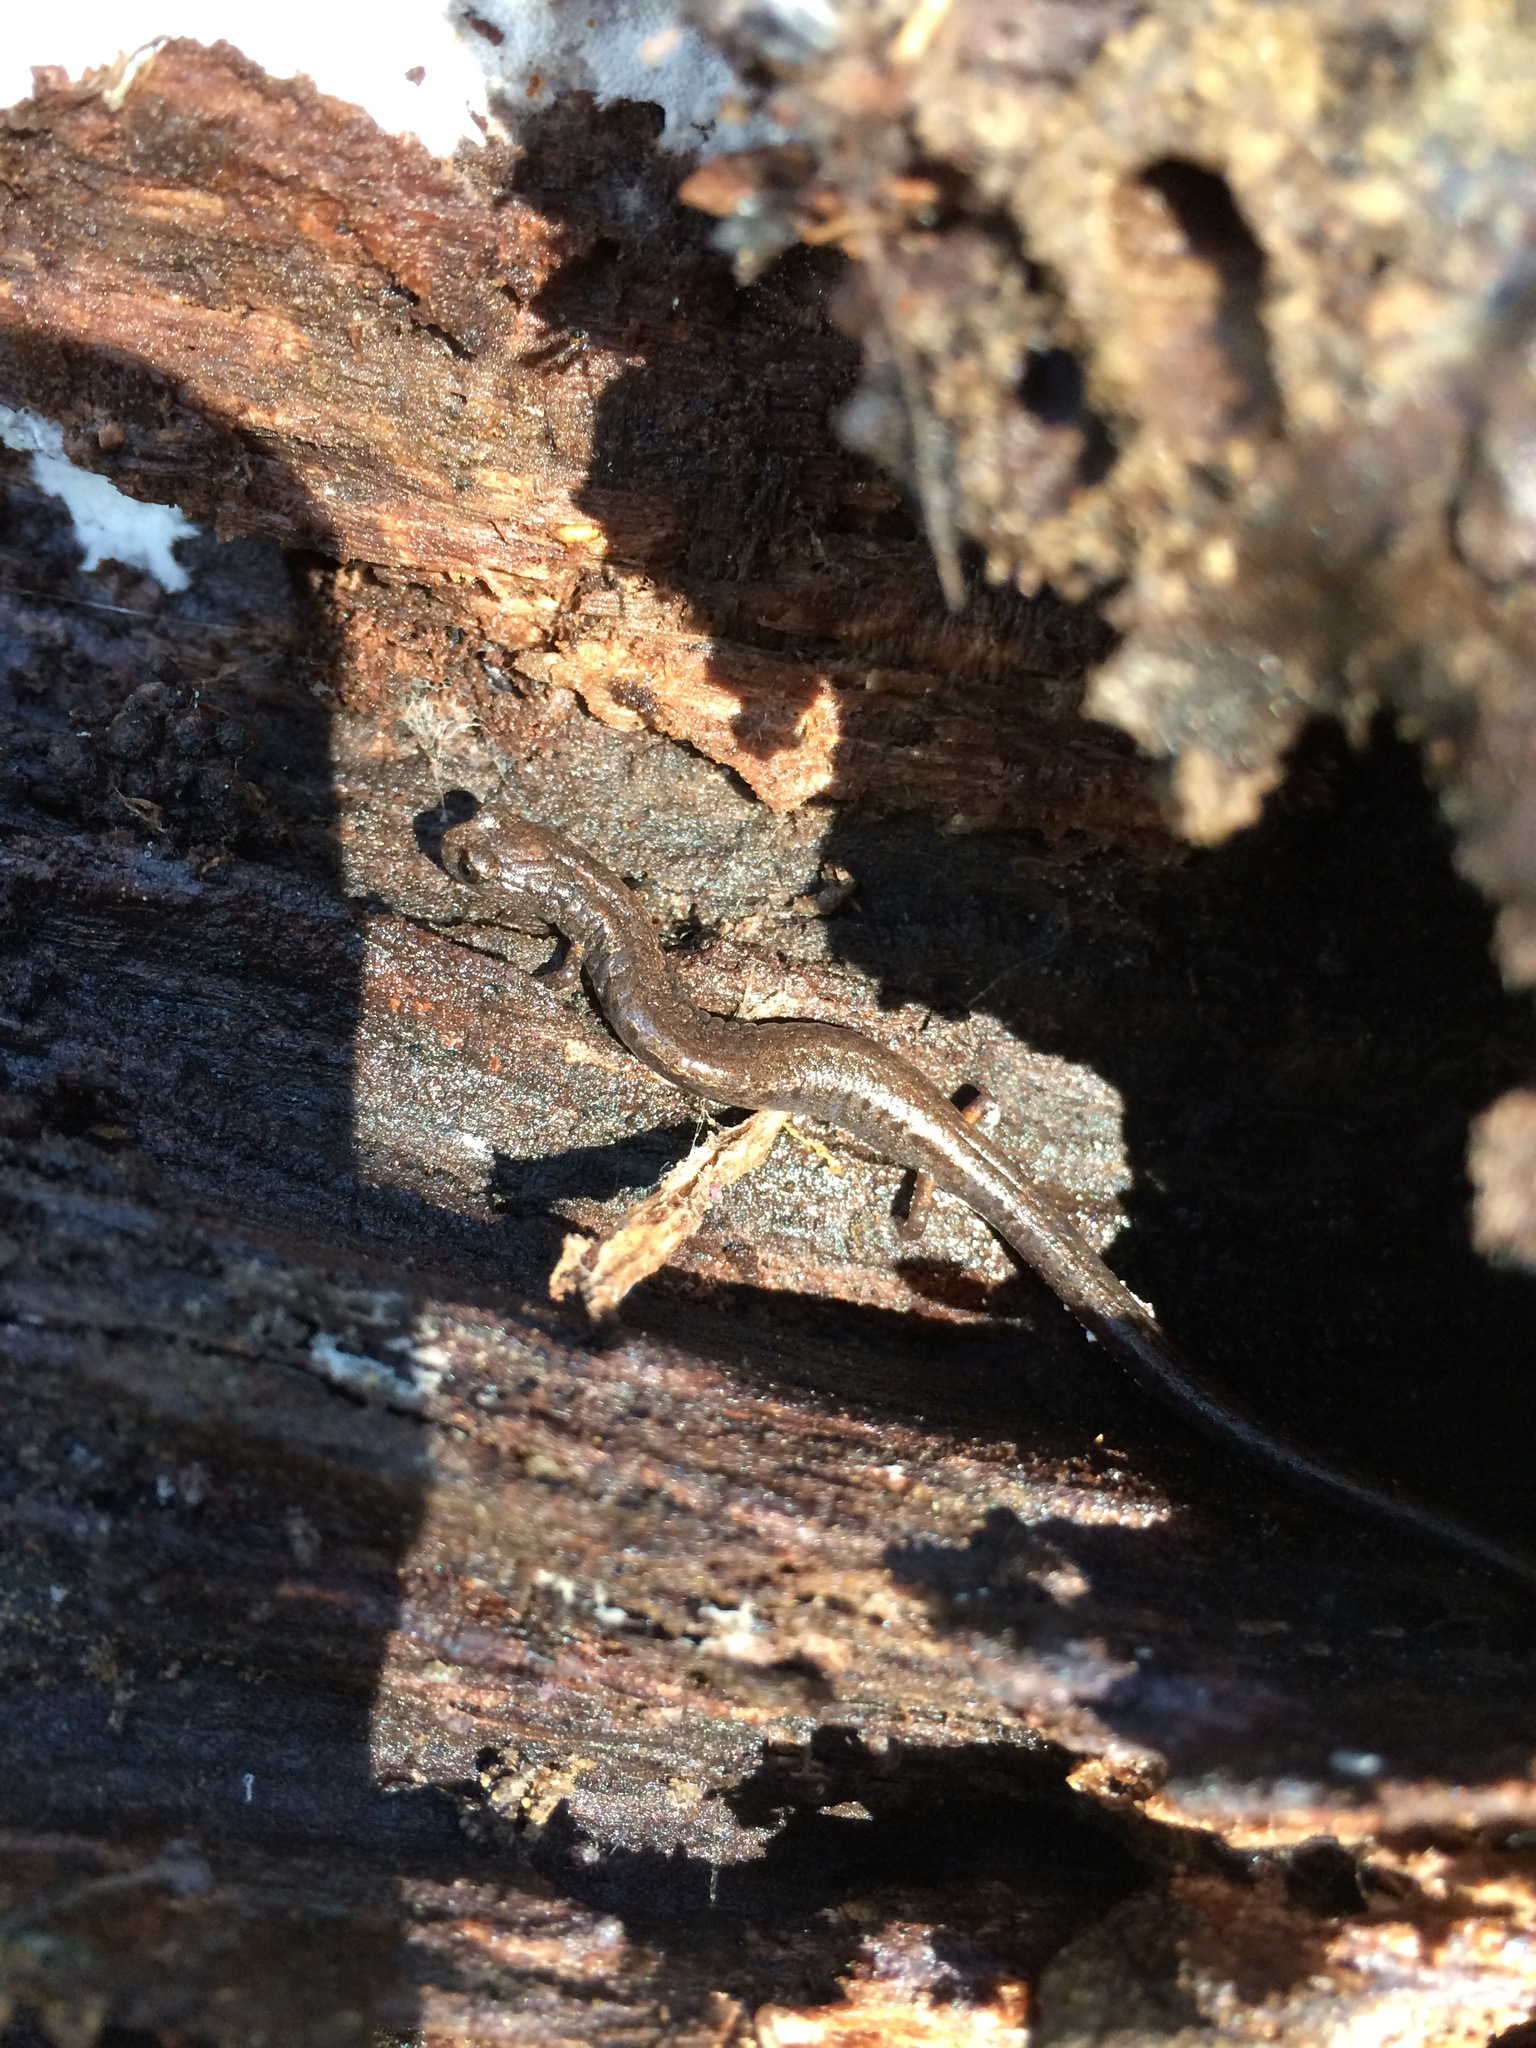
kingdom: Animalia
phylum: Chordata
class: Amphibia
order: Caudata
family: Plethodontidae
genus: Batrachoseps
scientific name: Batrachoseps attenuatus
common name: California slender salamander
